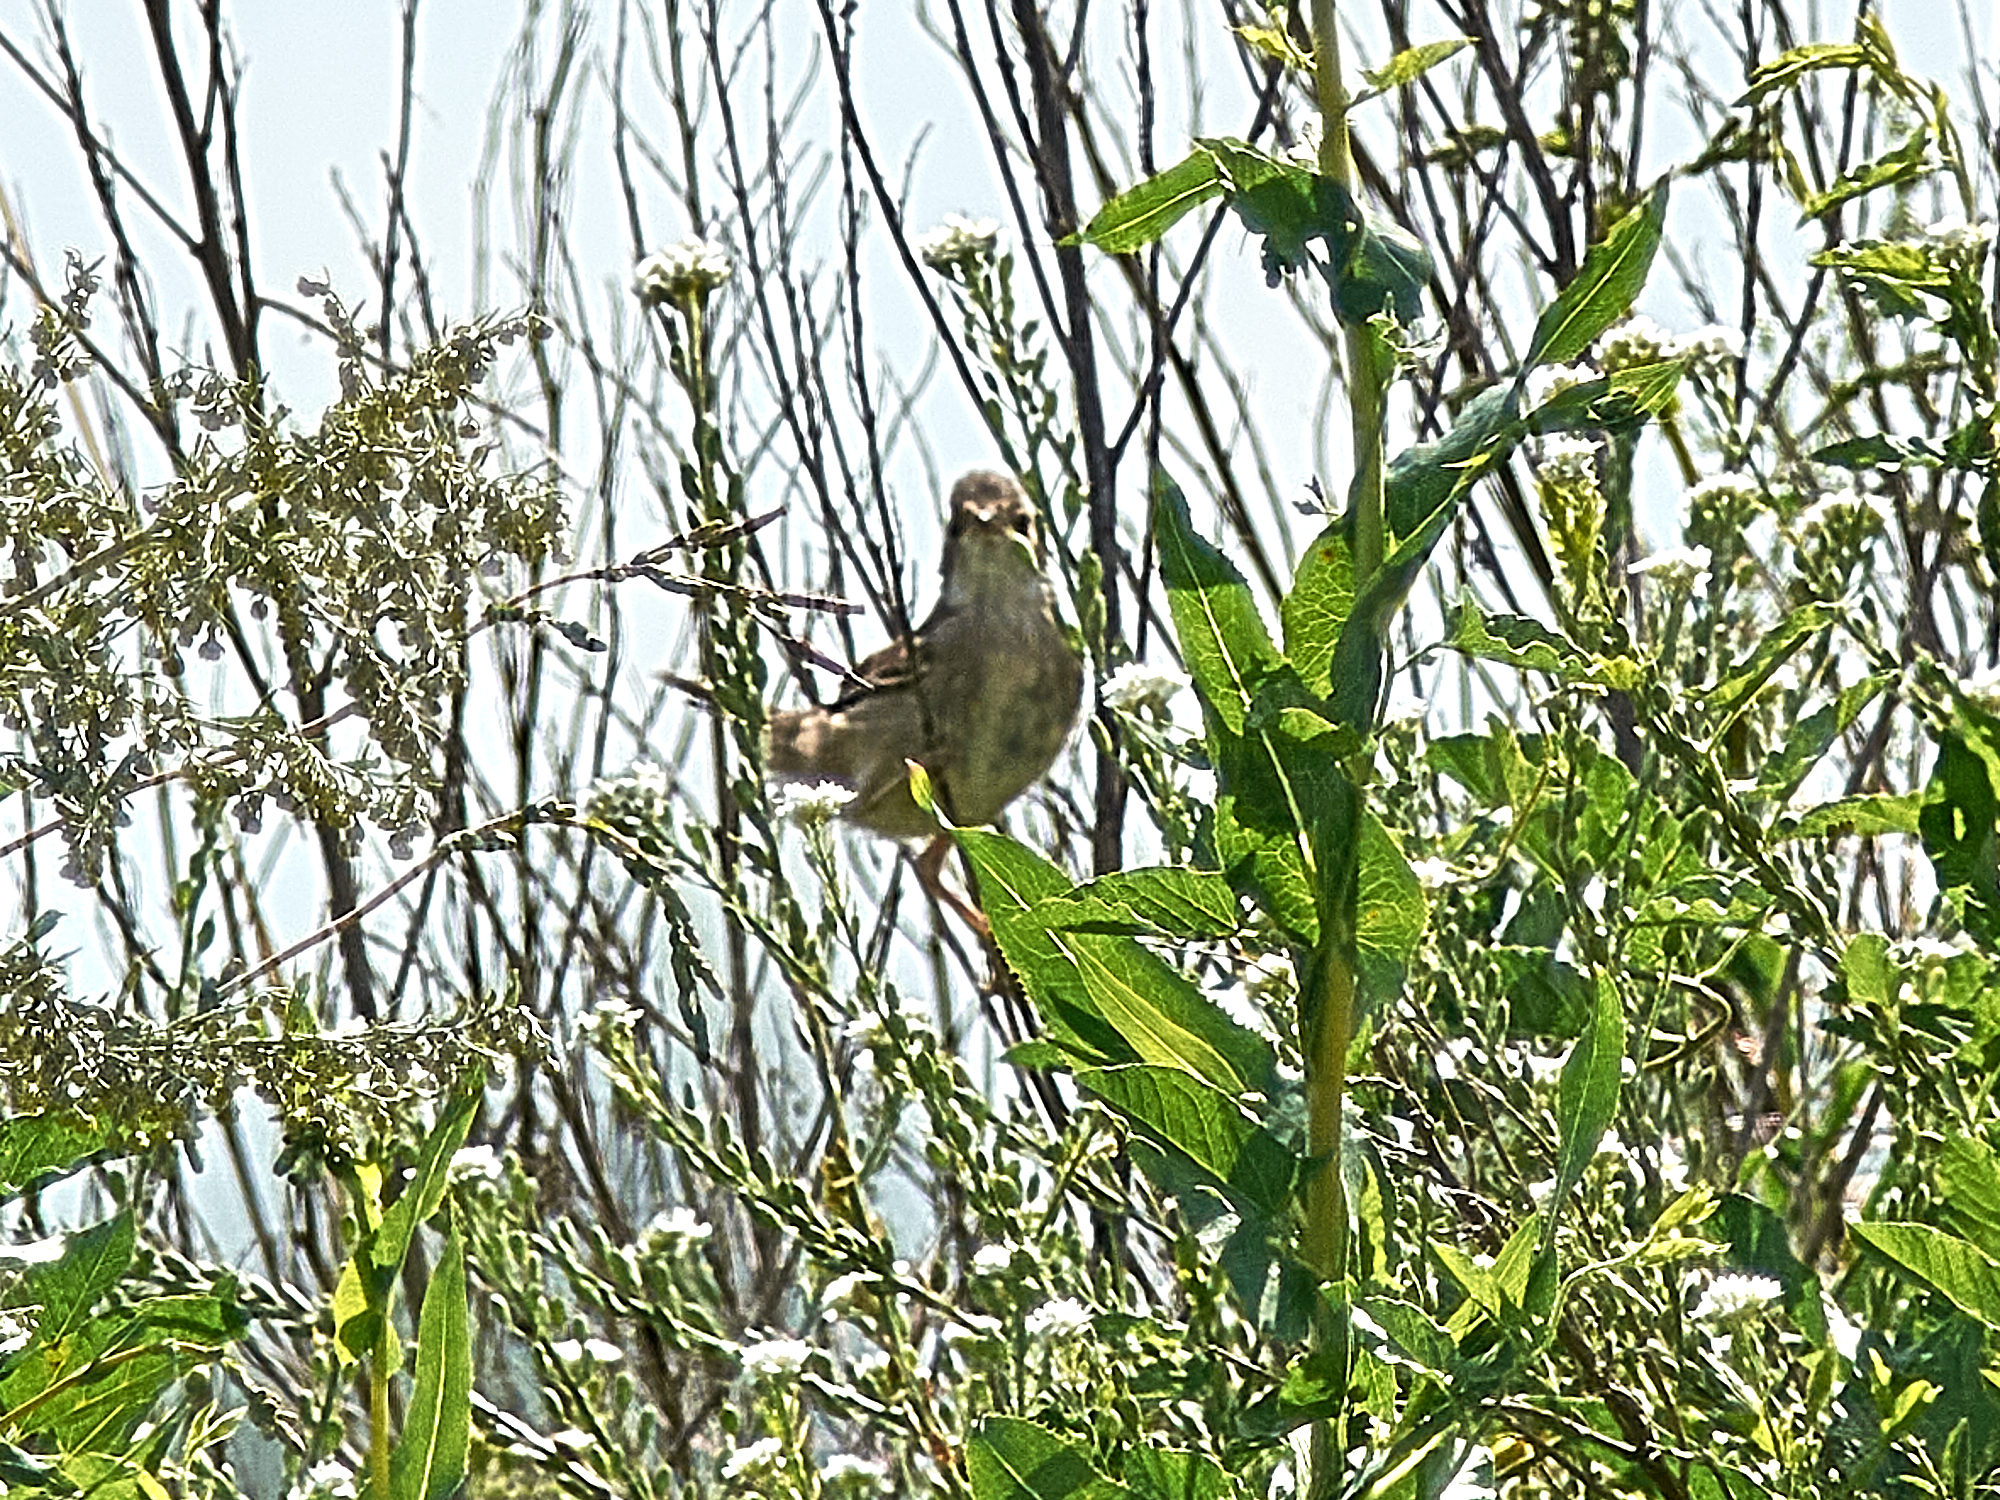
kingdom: Animalia
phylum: Chordata
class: Aves
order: Passeriformes
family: Sylviidae
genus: Sylvia
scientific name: Sylvia communis
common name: Common whitethroat
